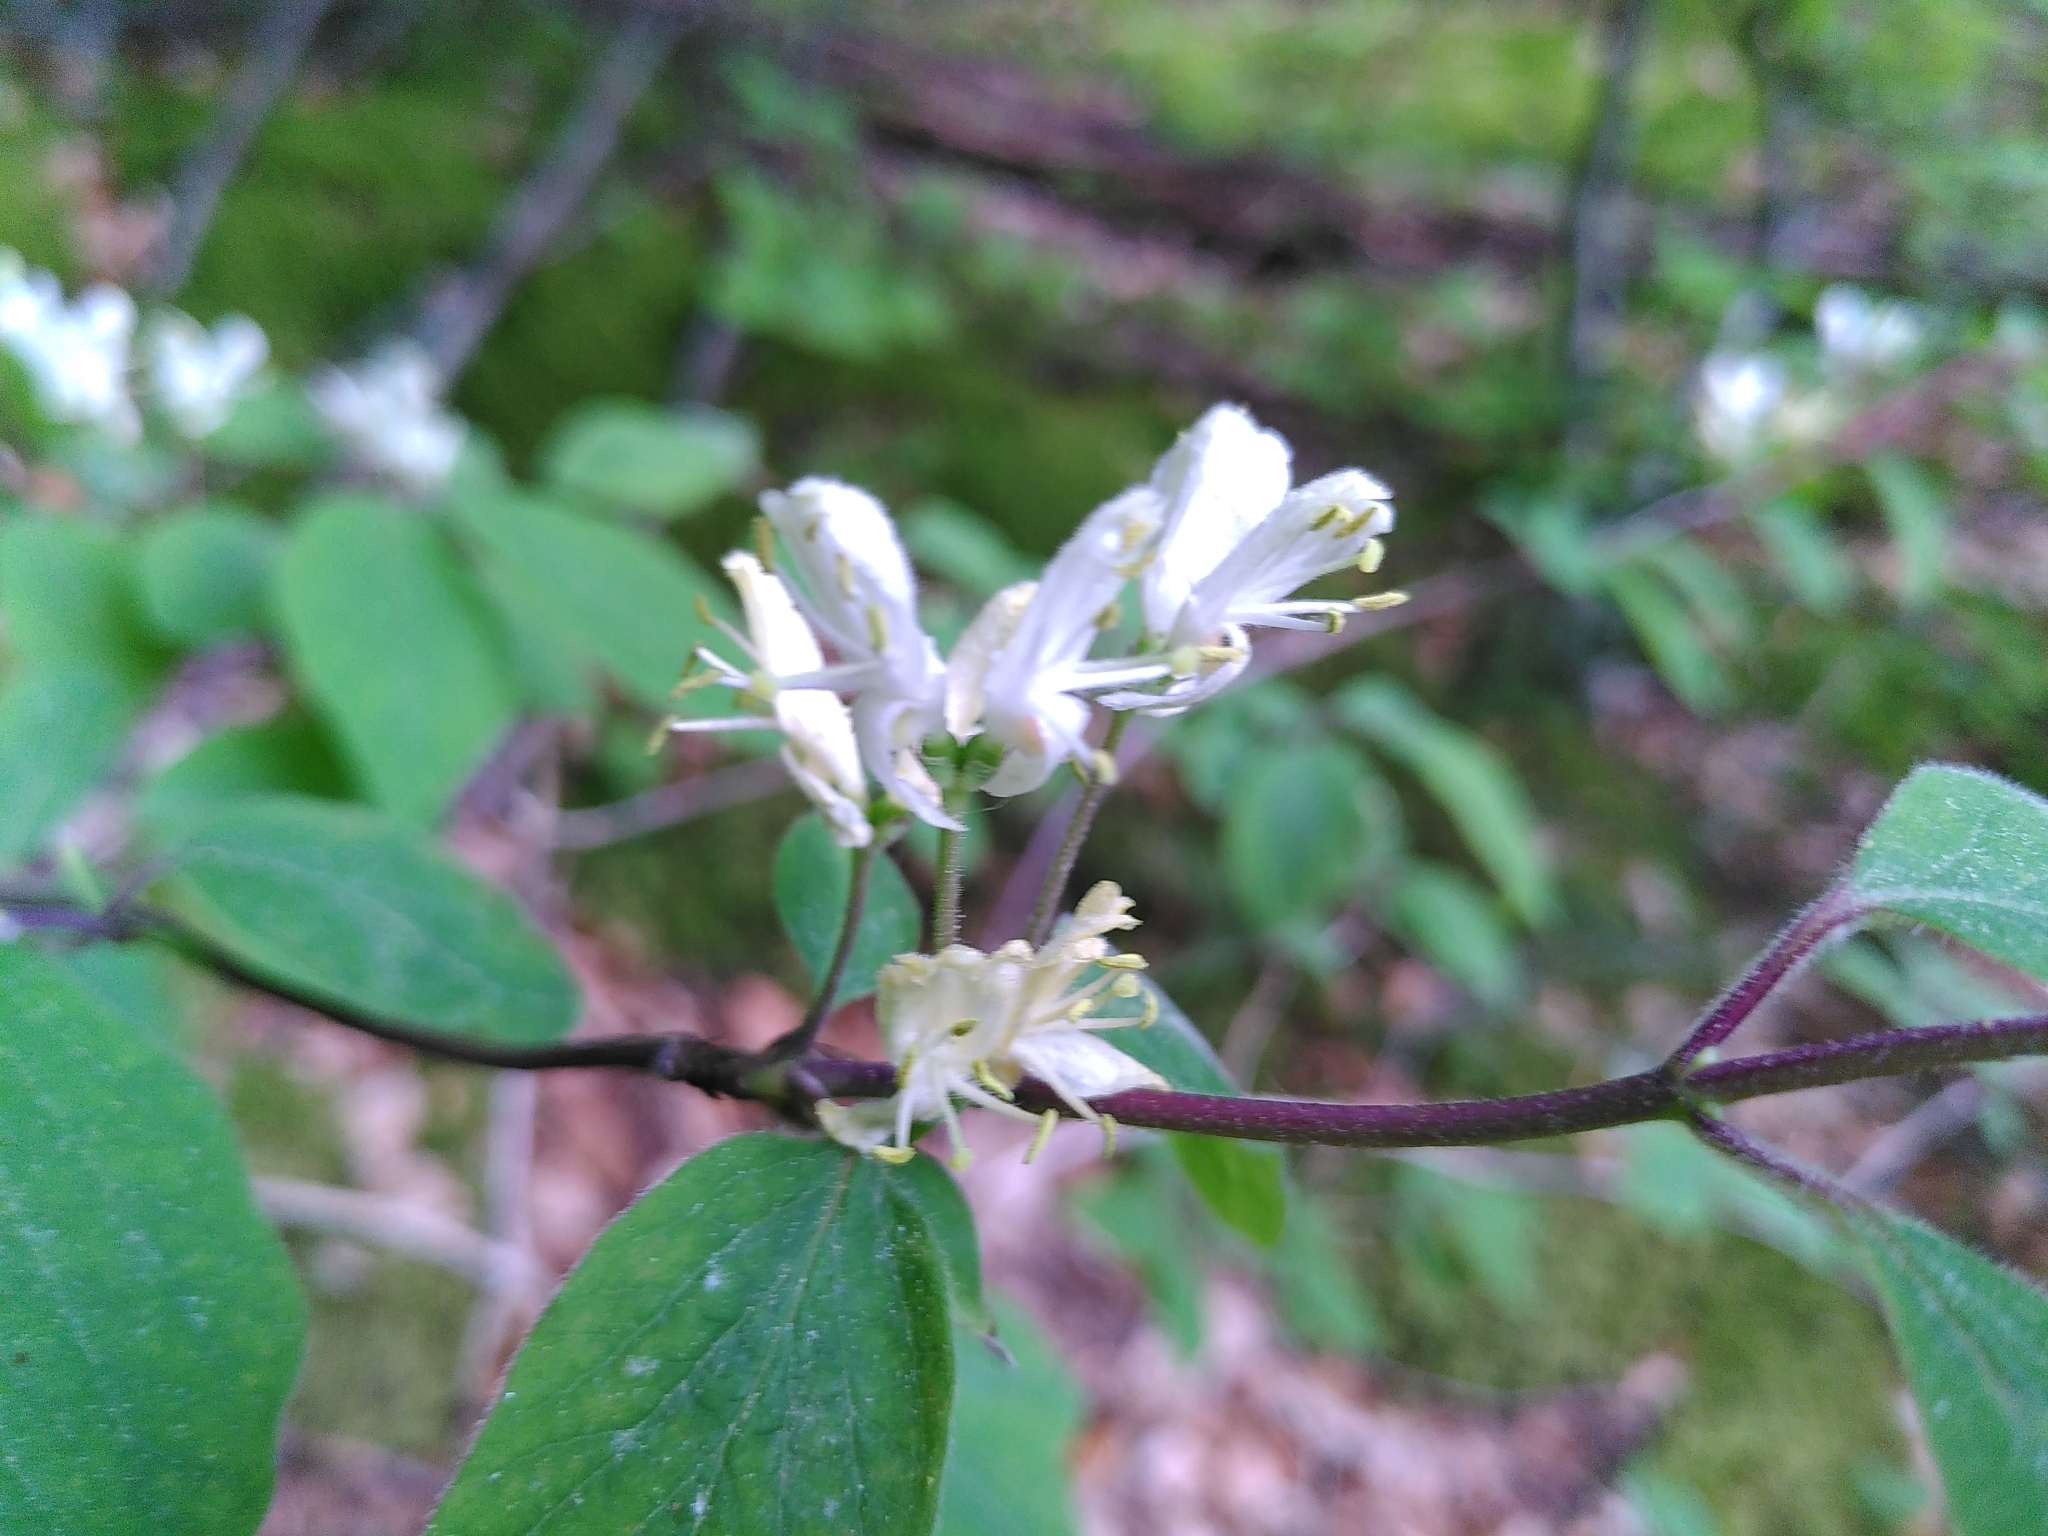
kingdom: Plantae
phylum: Tracheophyta
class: Magnoliopsida
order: Dipsacales
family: Caprifoliaceae
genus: Lonicera
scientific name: Lonicera xylosteum
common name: Fly honeysuckle
